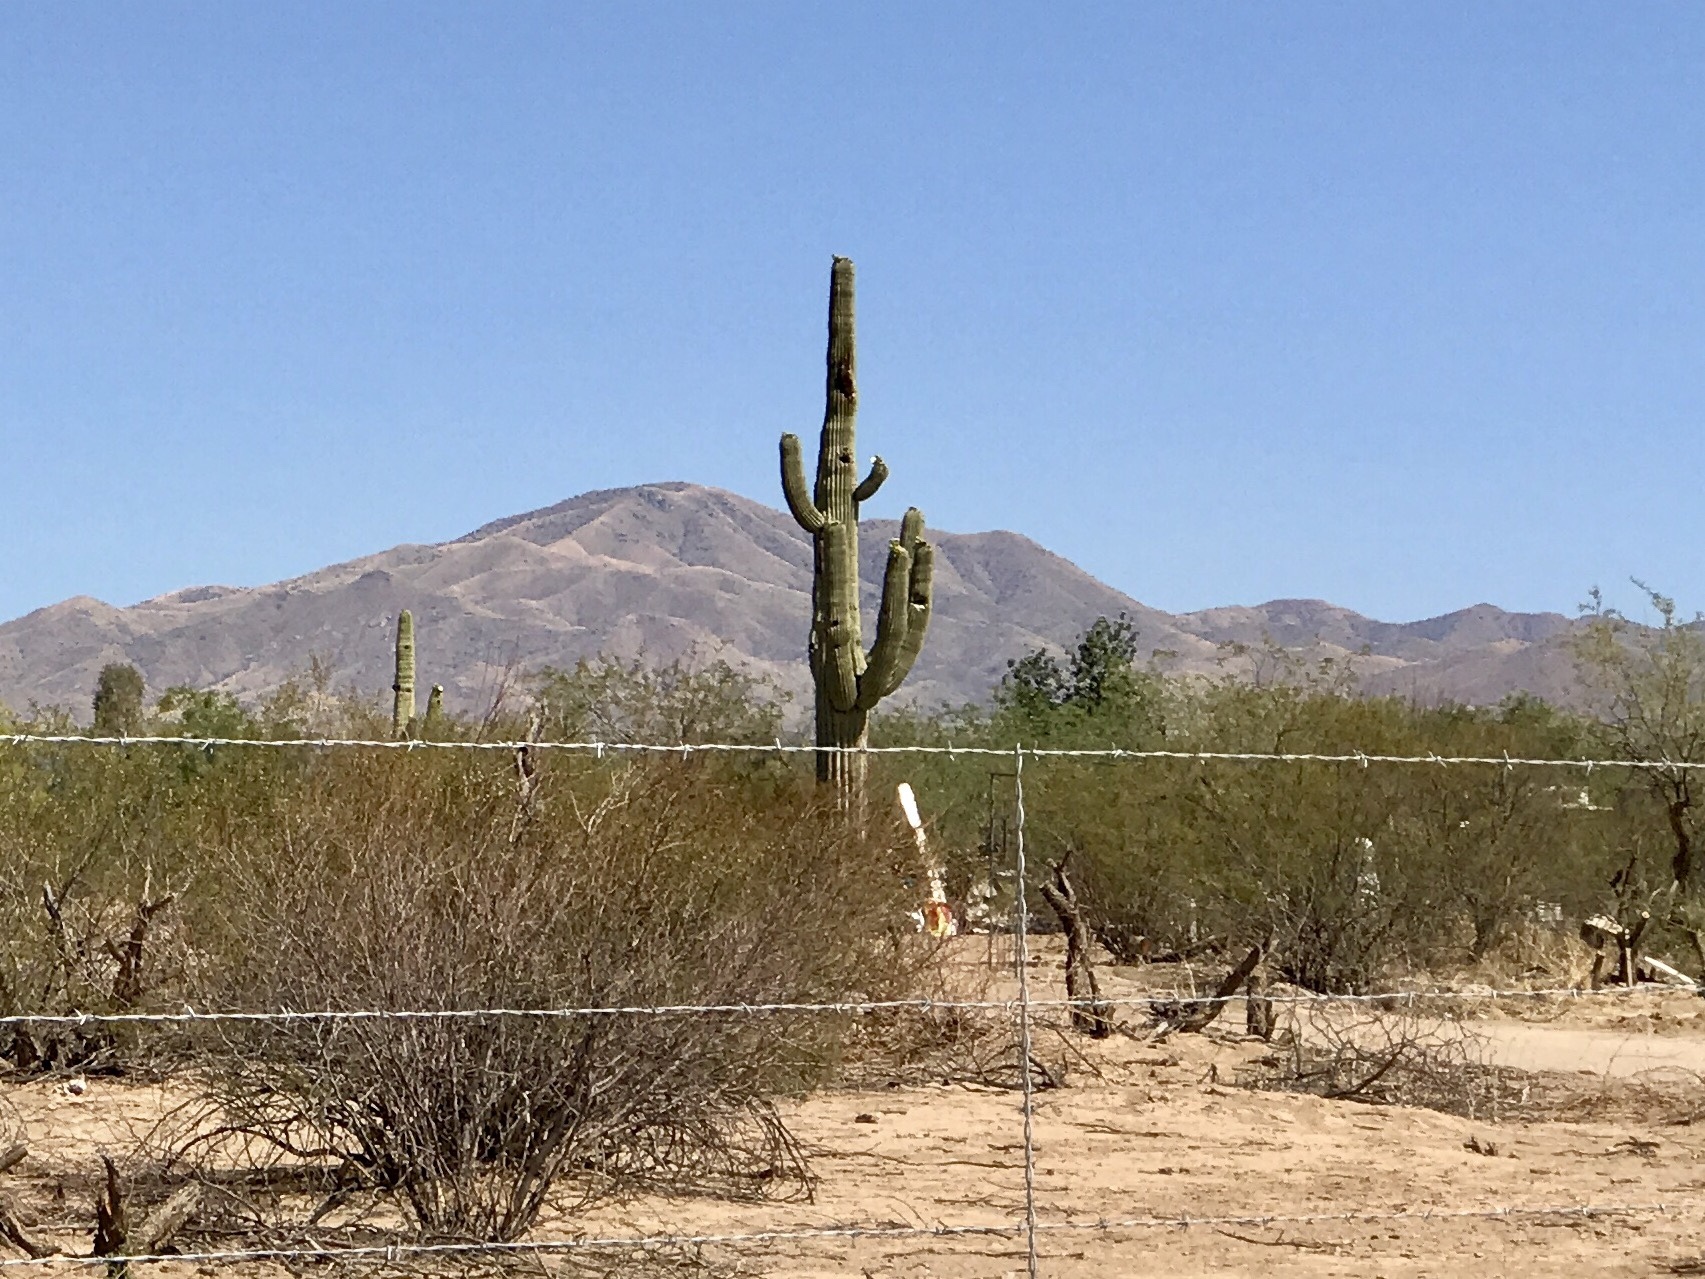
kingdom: Plantae
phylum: Tracheophyta
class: Magnoliopsida
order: Caryophyllales
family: Cactaceae
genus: Carnegiea
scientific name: Carnegiea gigantea
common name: Saguaro
